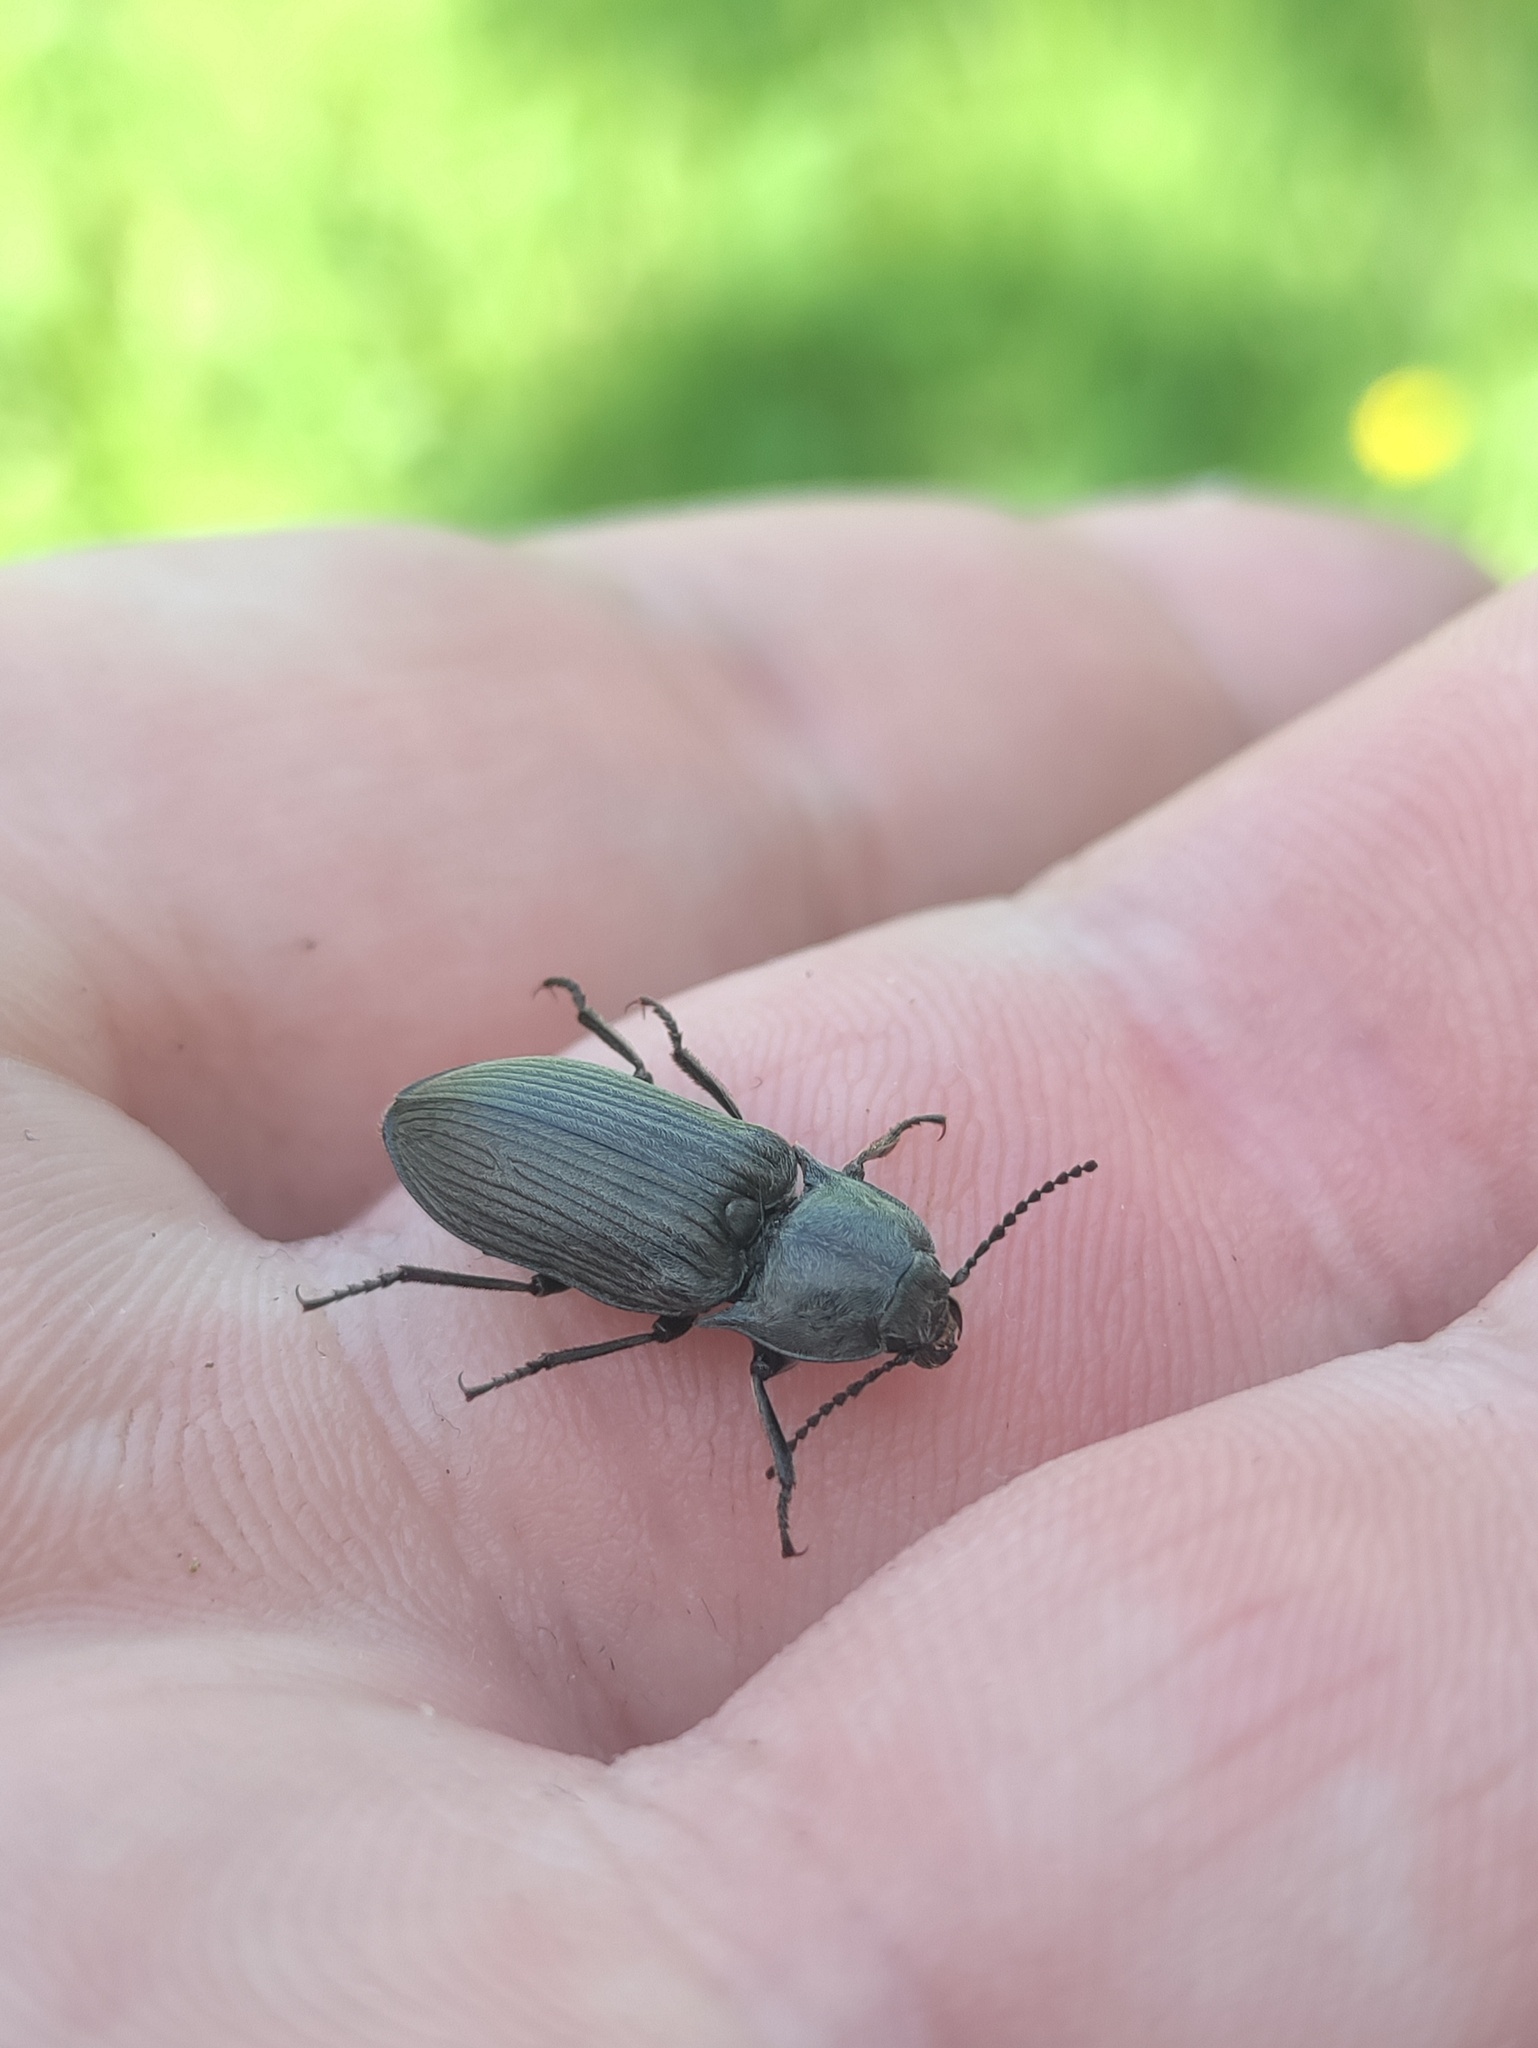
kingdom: Animalia
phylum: Arthropoda
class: Insecta
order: Coleoptera
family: Elateridae
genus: Selatosomus
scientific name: Selatosomus latus
